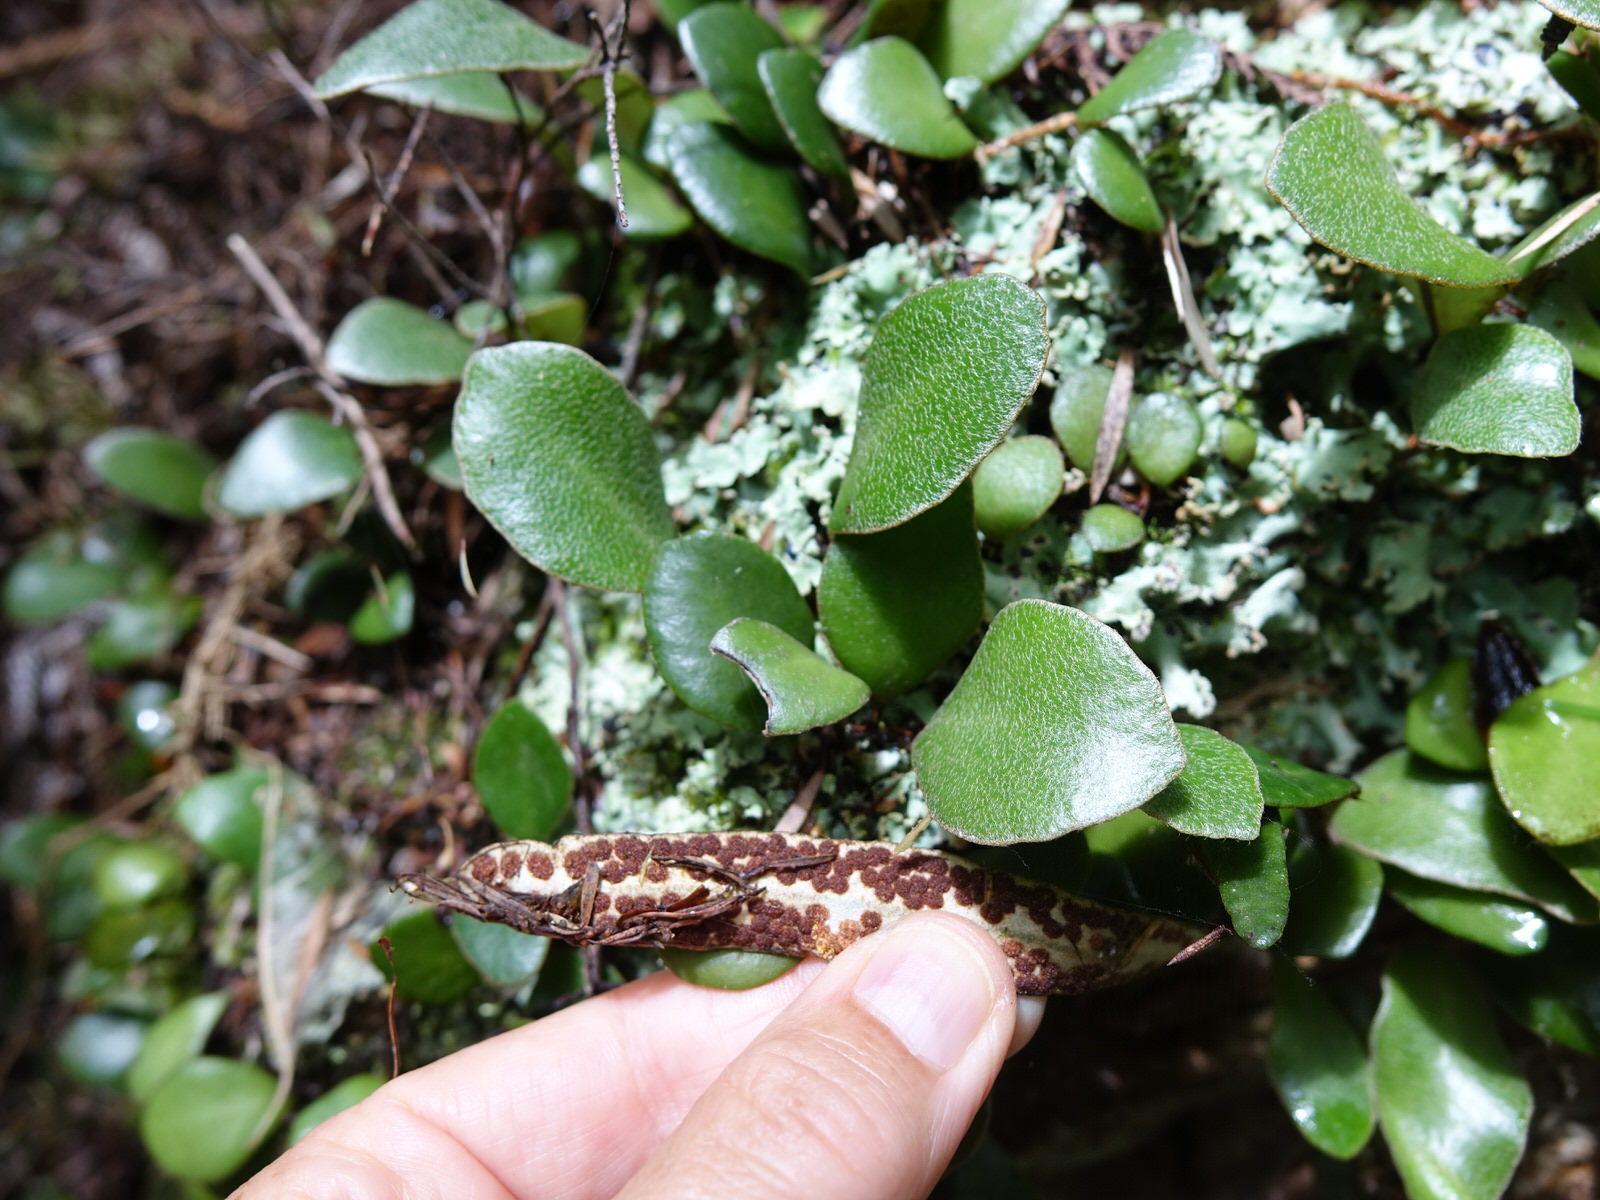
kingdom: Plantae
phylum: Tracheophyta
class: Polypodiopsida
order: Polypodiales
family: Polypodiaceae
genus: Pyrrosia
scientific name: Pyrrosia eleagnifolia
